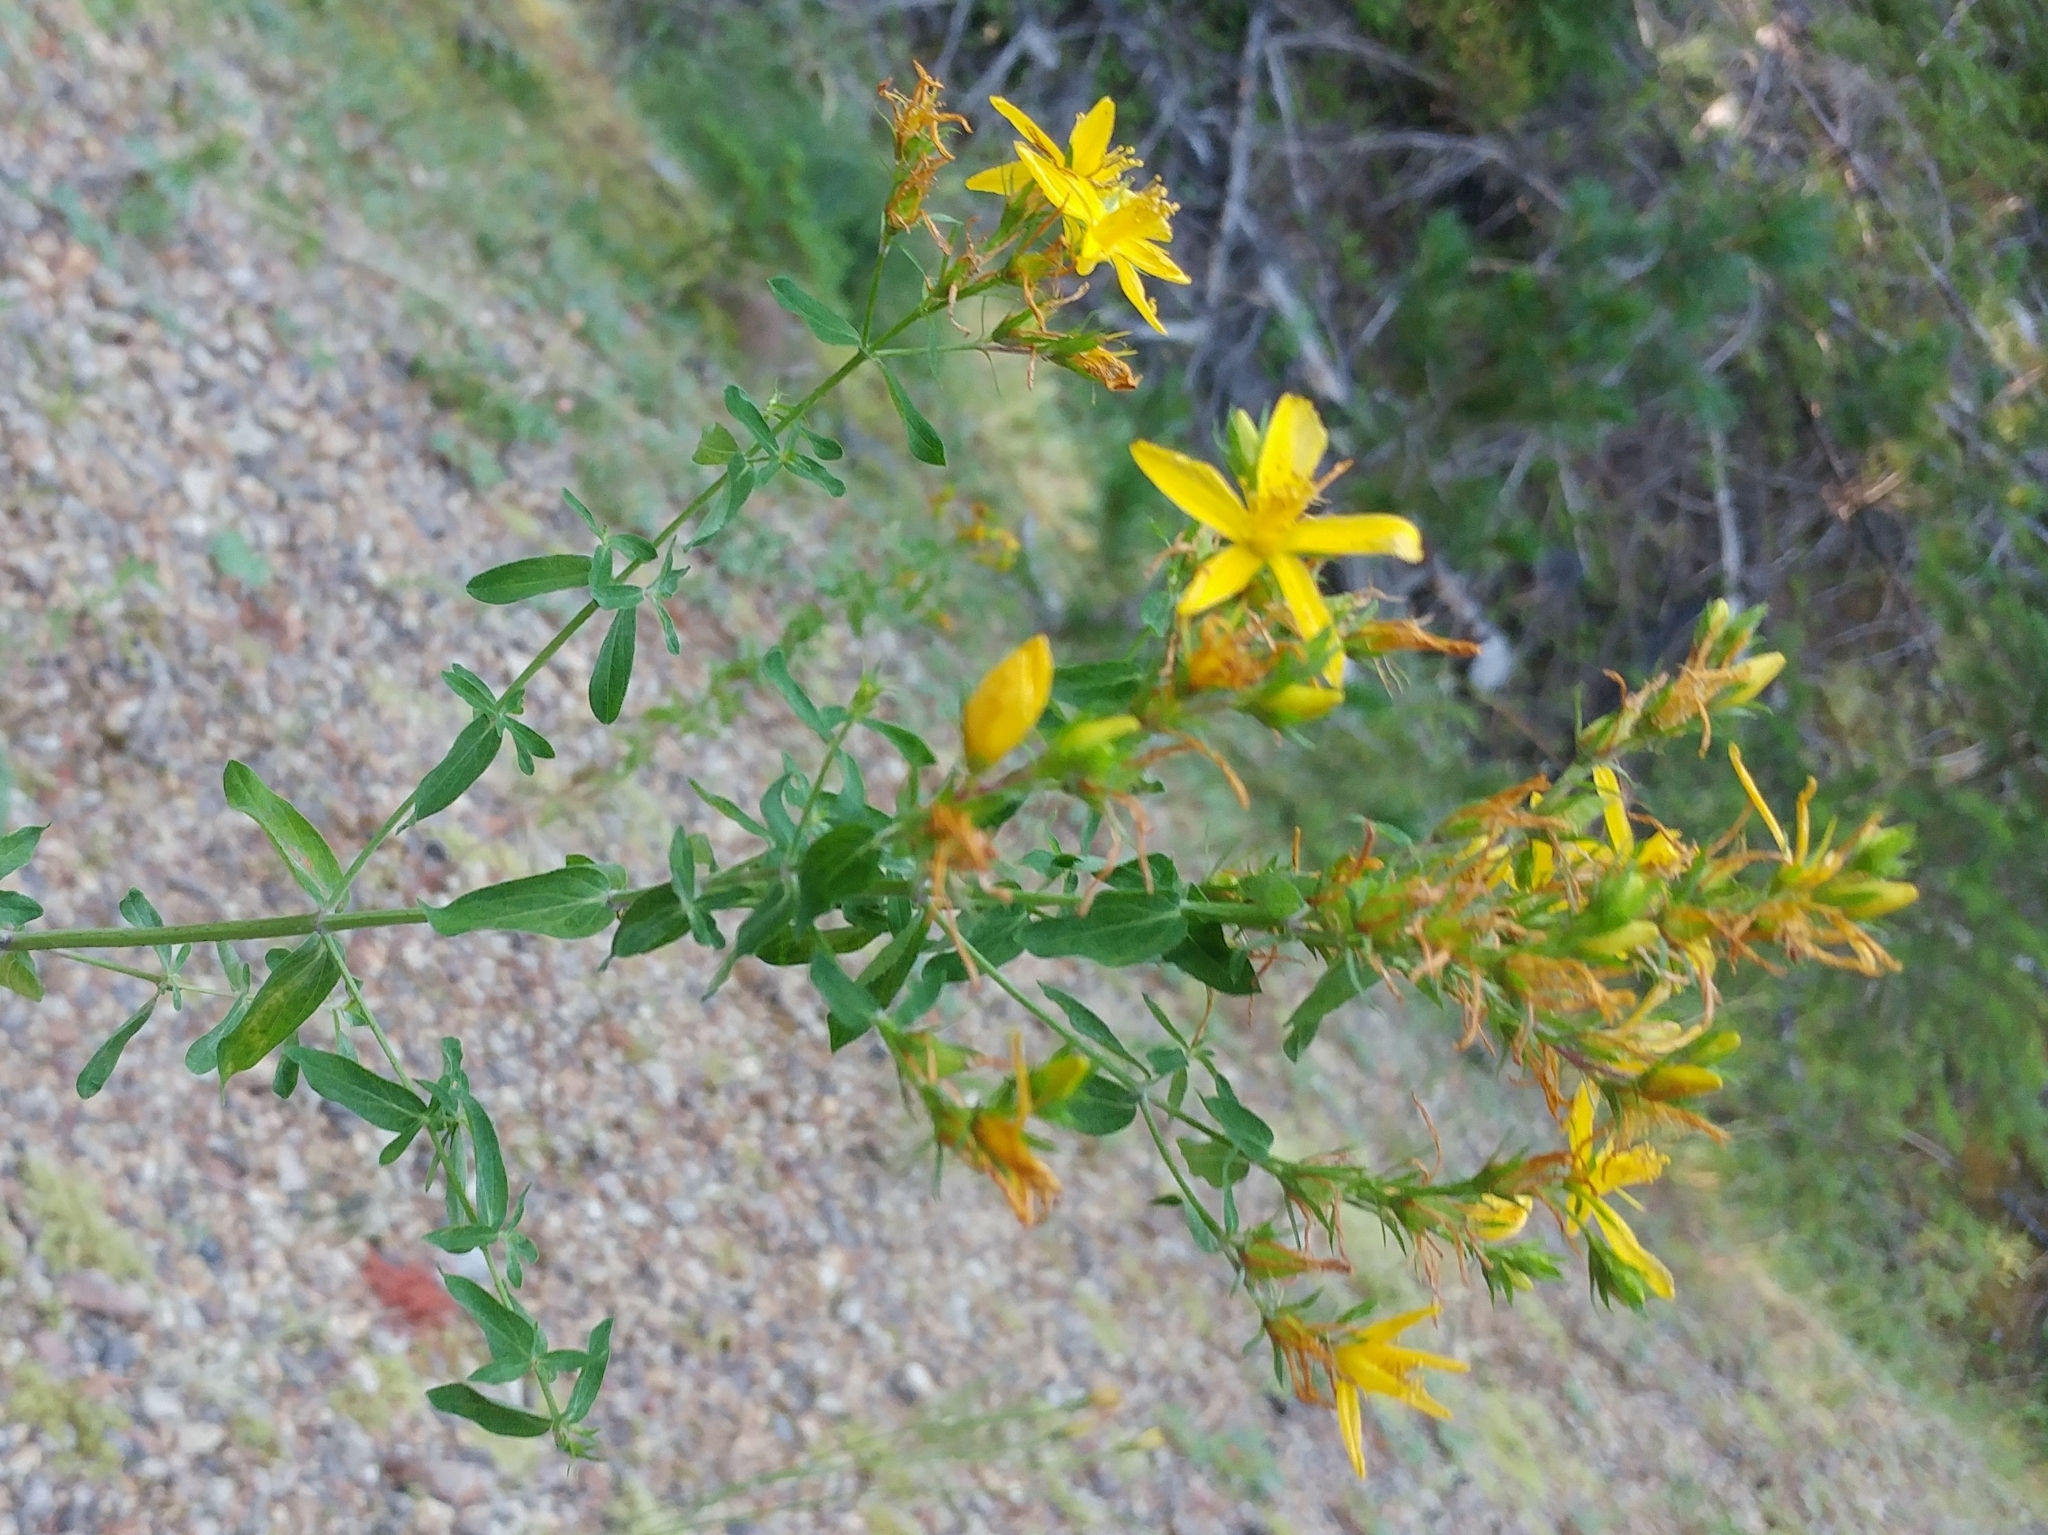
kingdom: Plantae
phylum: Tracheophyta
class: Magnoliopsida
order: Malpighiales
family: Hypericaceae
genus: Hypericum
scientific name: Hypericum perforatum
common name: Common st. johnswort
